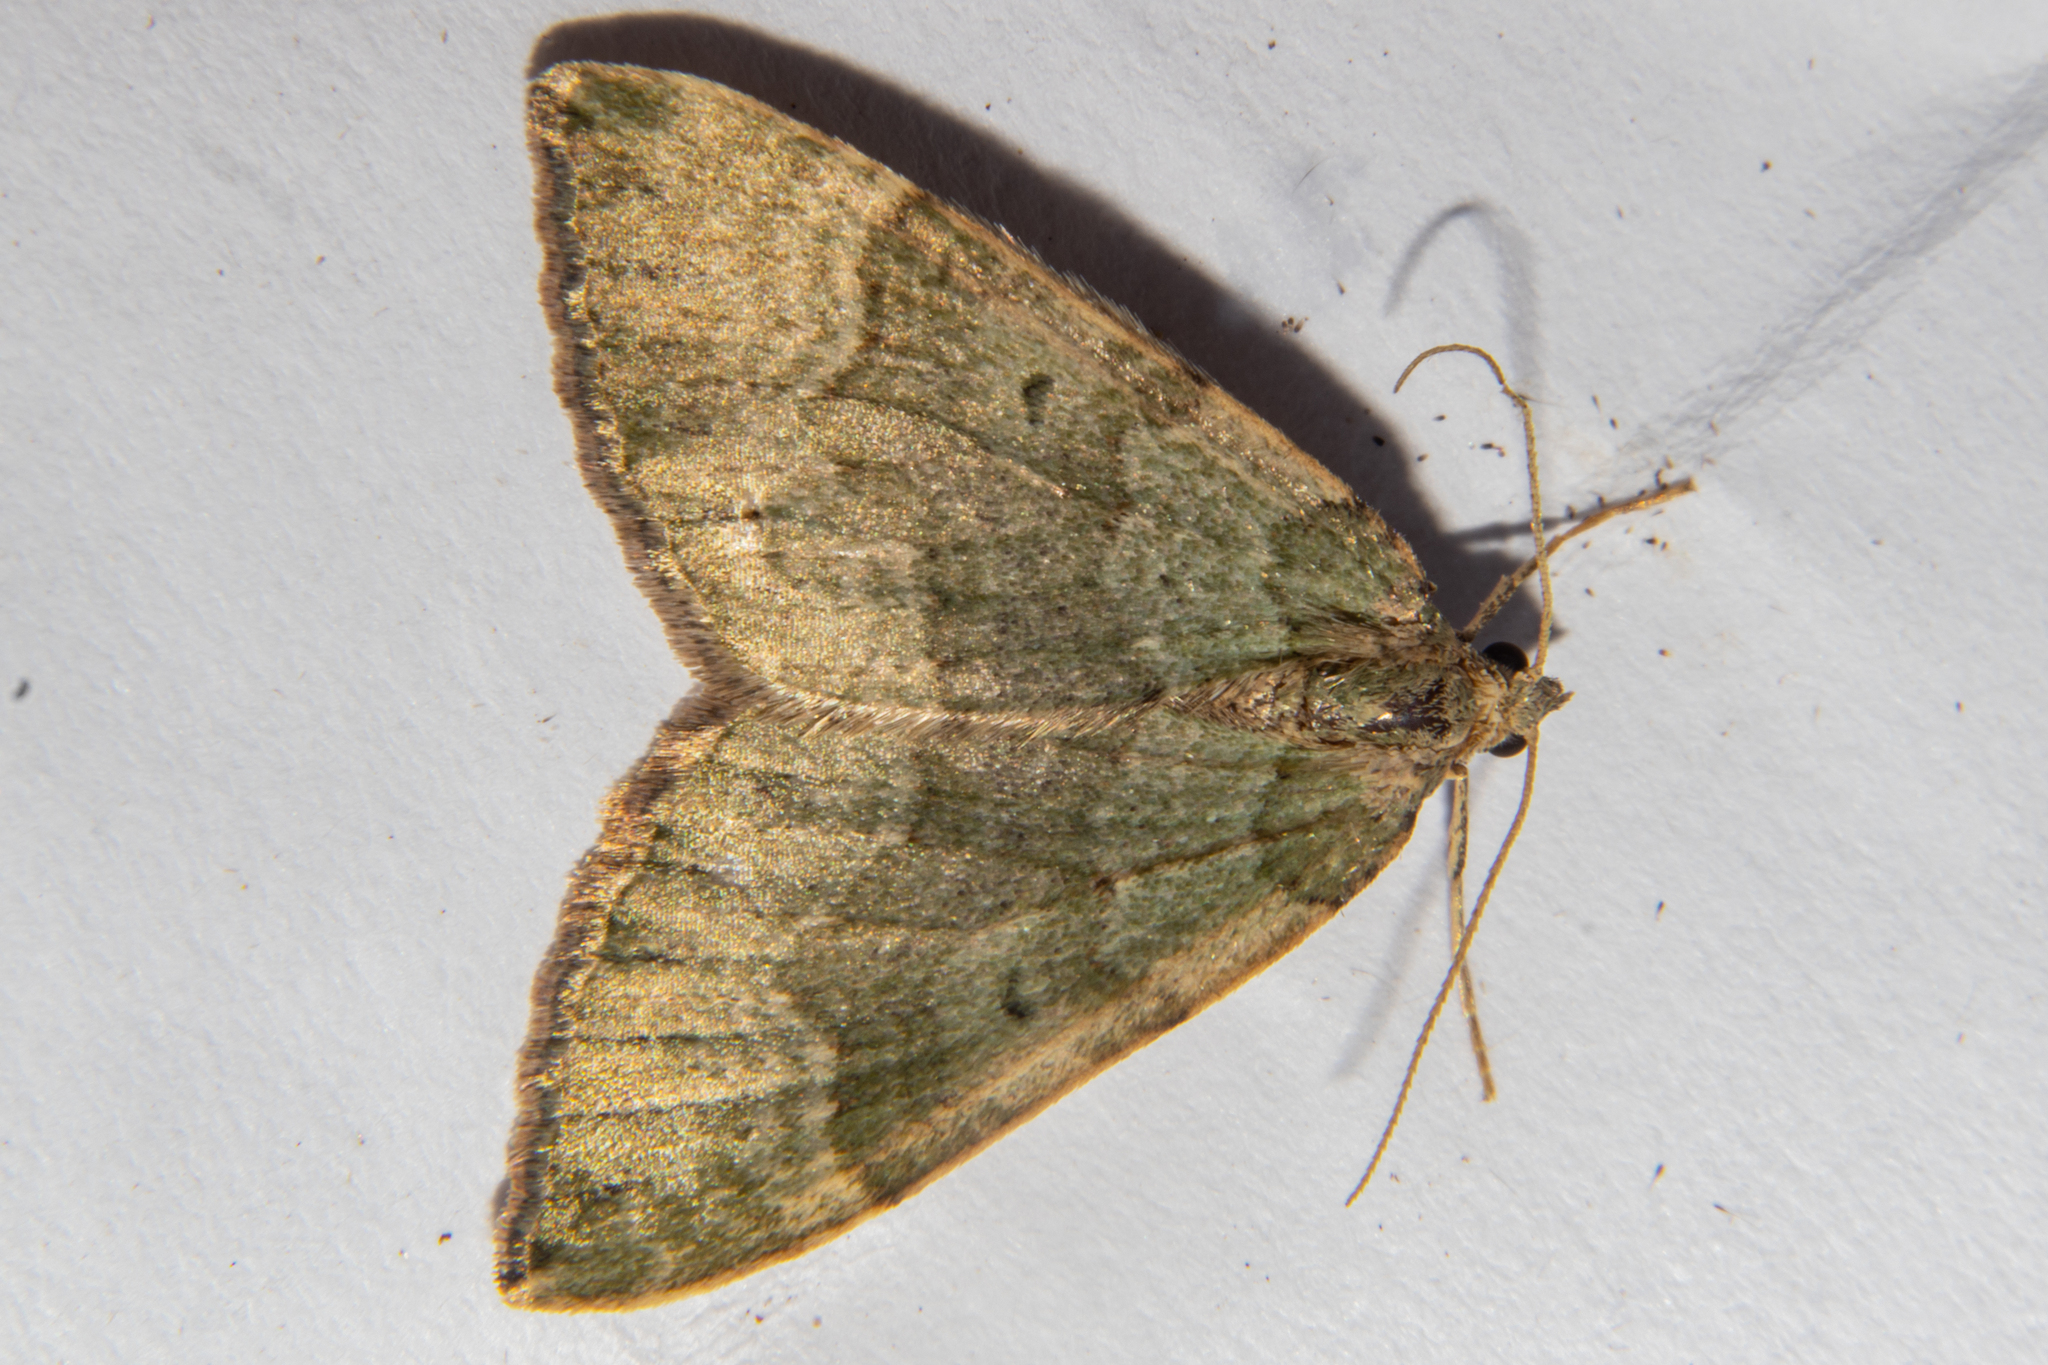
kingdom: Animalia
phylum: Arthropoda
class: Insecta
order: Lepidoptera
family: Geometridae
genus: Epyaxa
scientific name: Epyaxa rosearia
